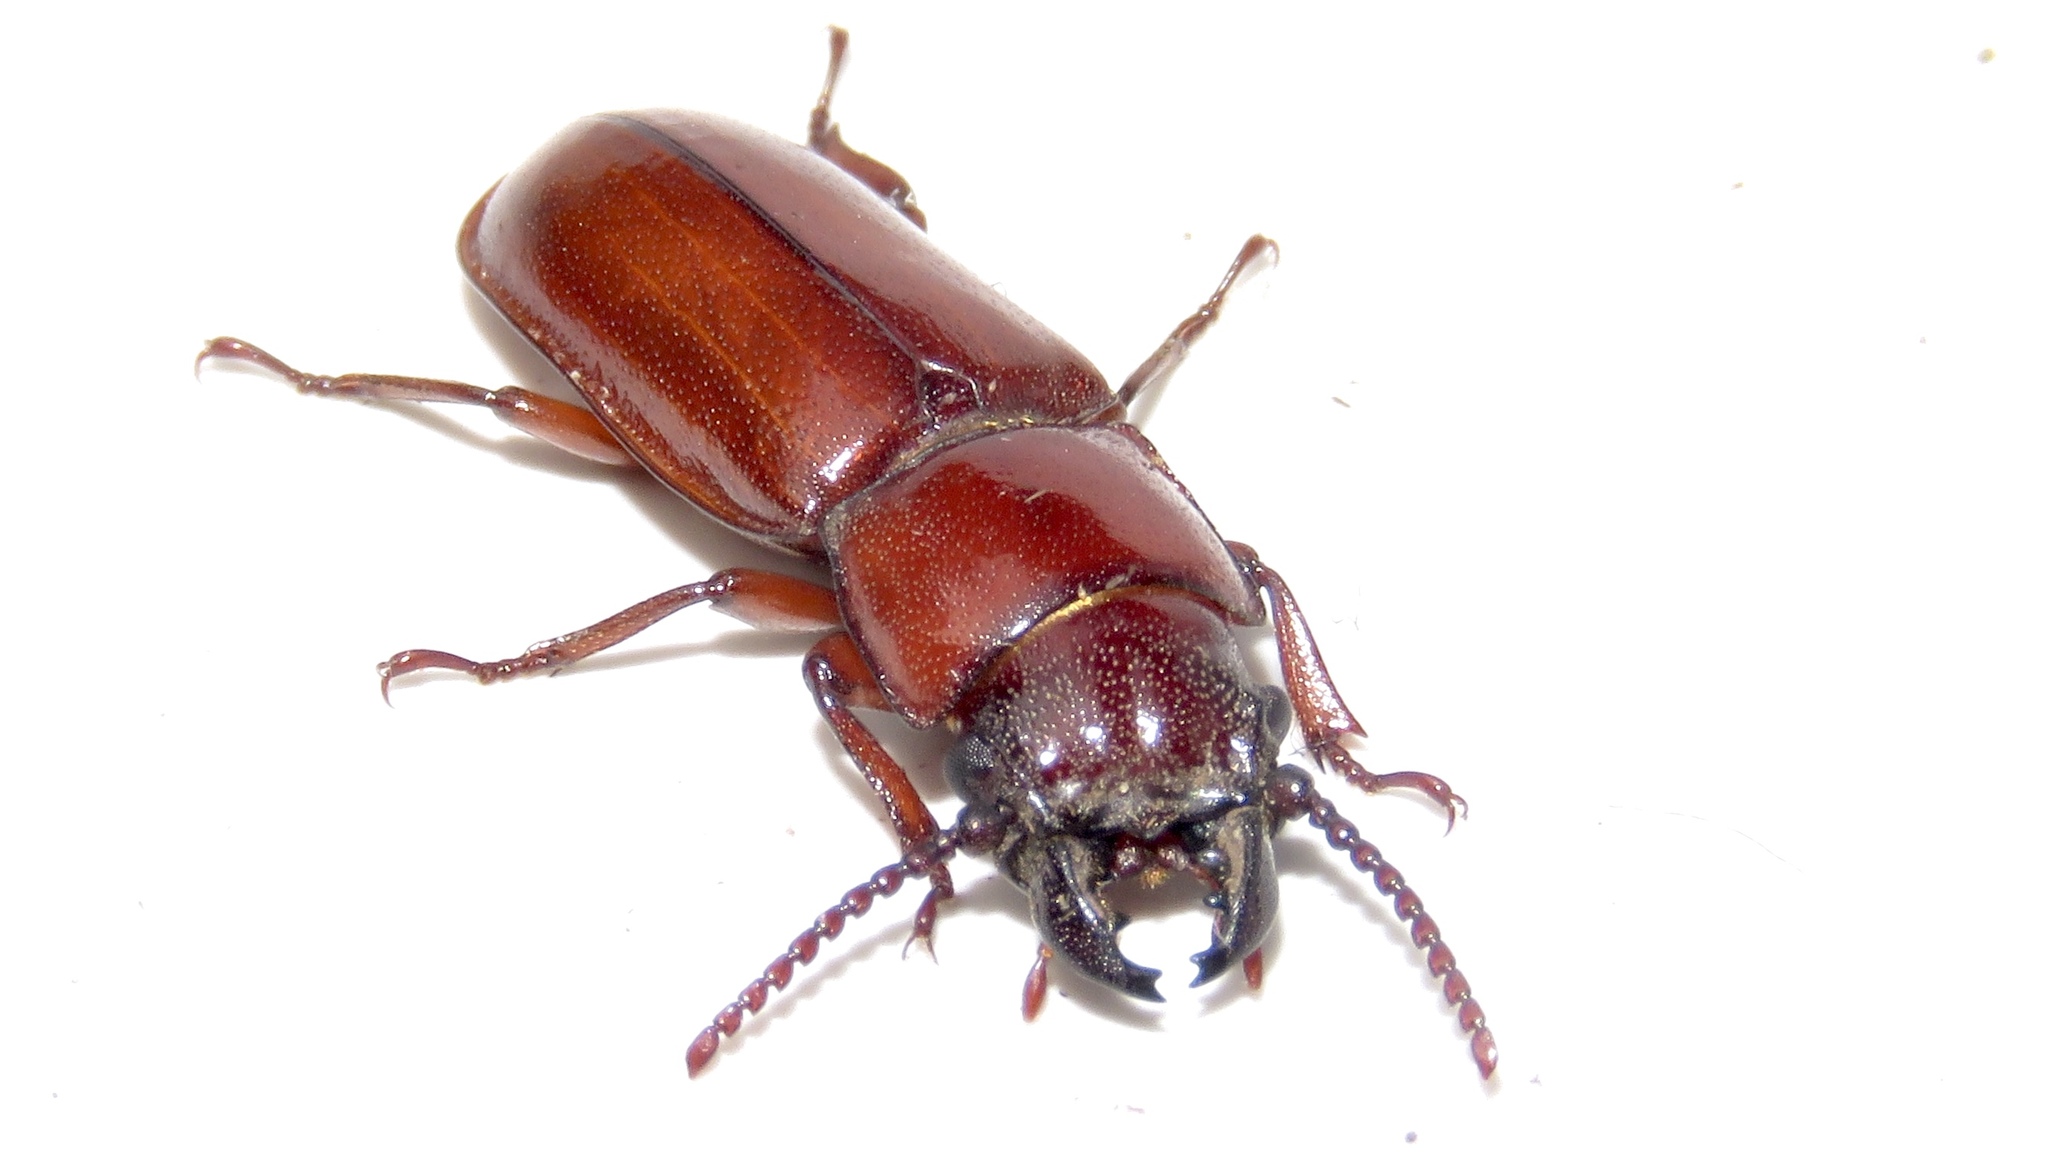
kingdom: Animalia
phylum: Arthropoda
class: Insecta
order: Coleoptera
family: Cerambycidae
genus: Neandra
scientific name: Neandra brunnea
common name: Pole borer
